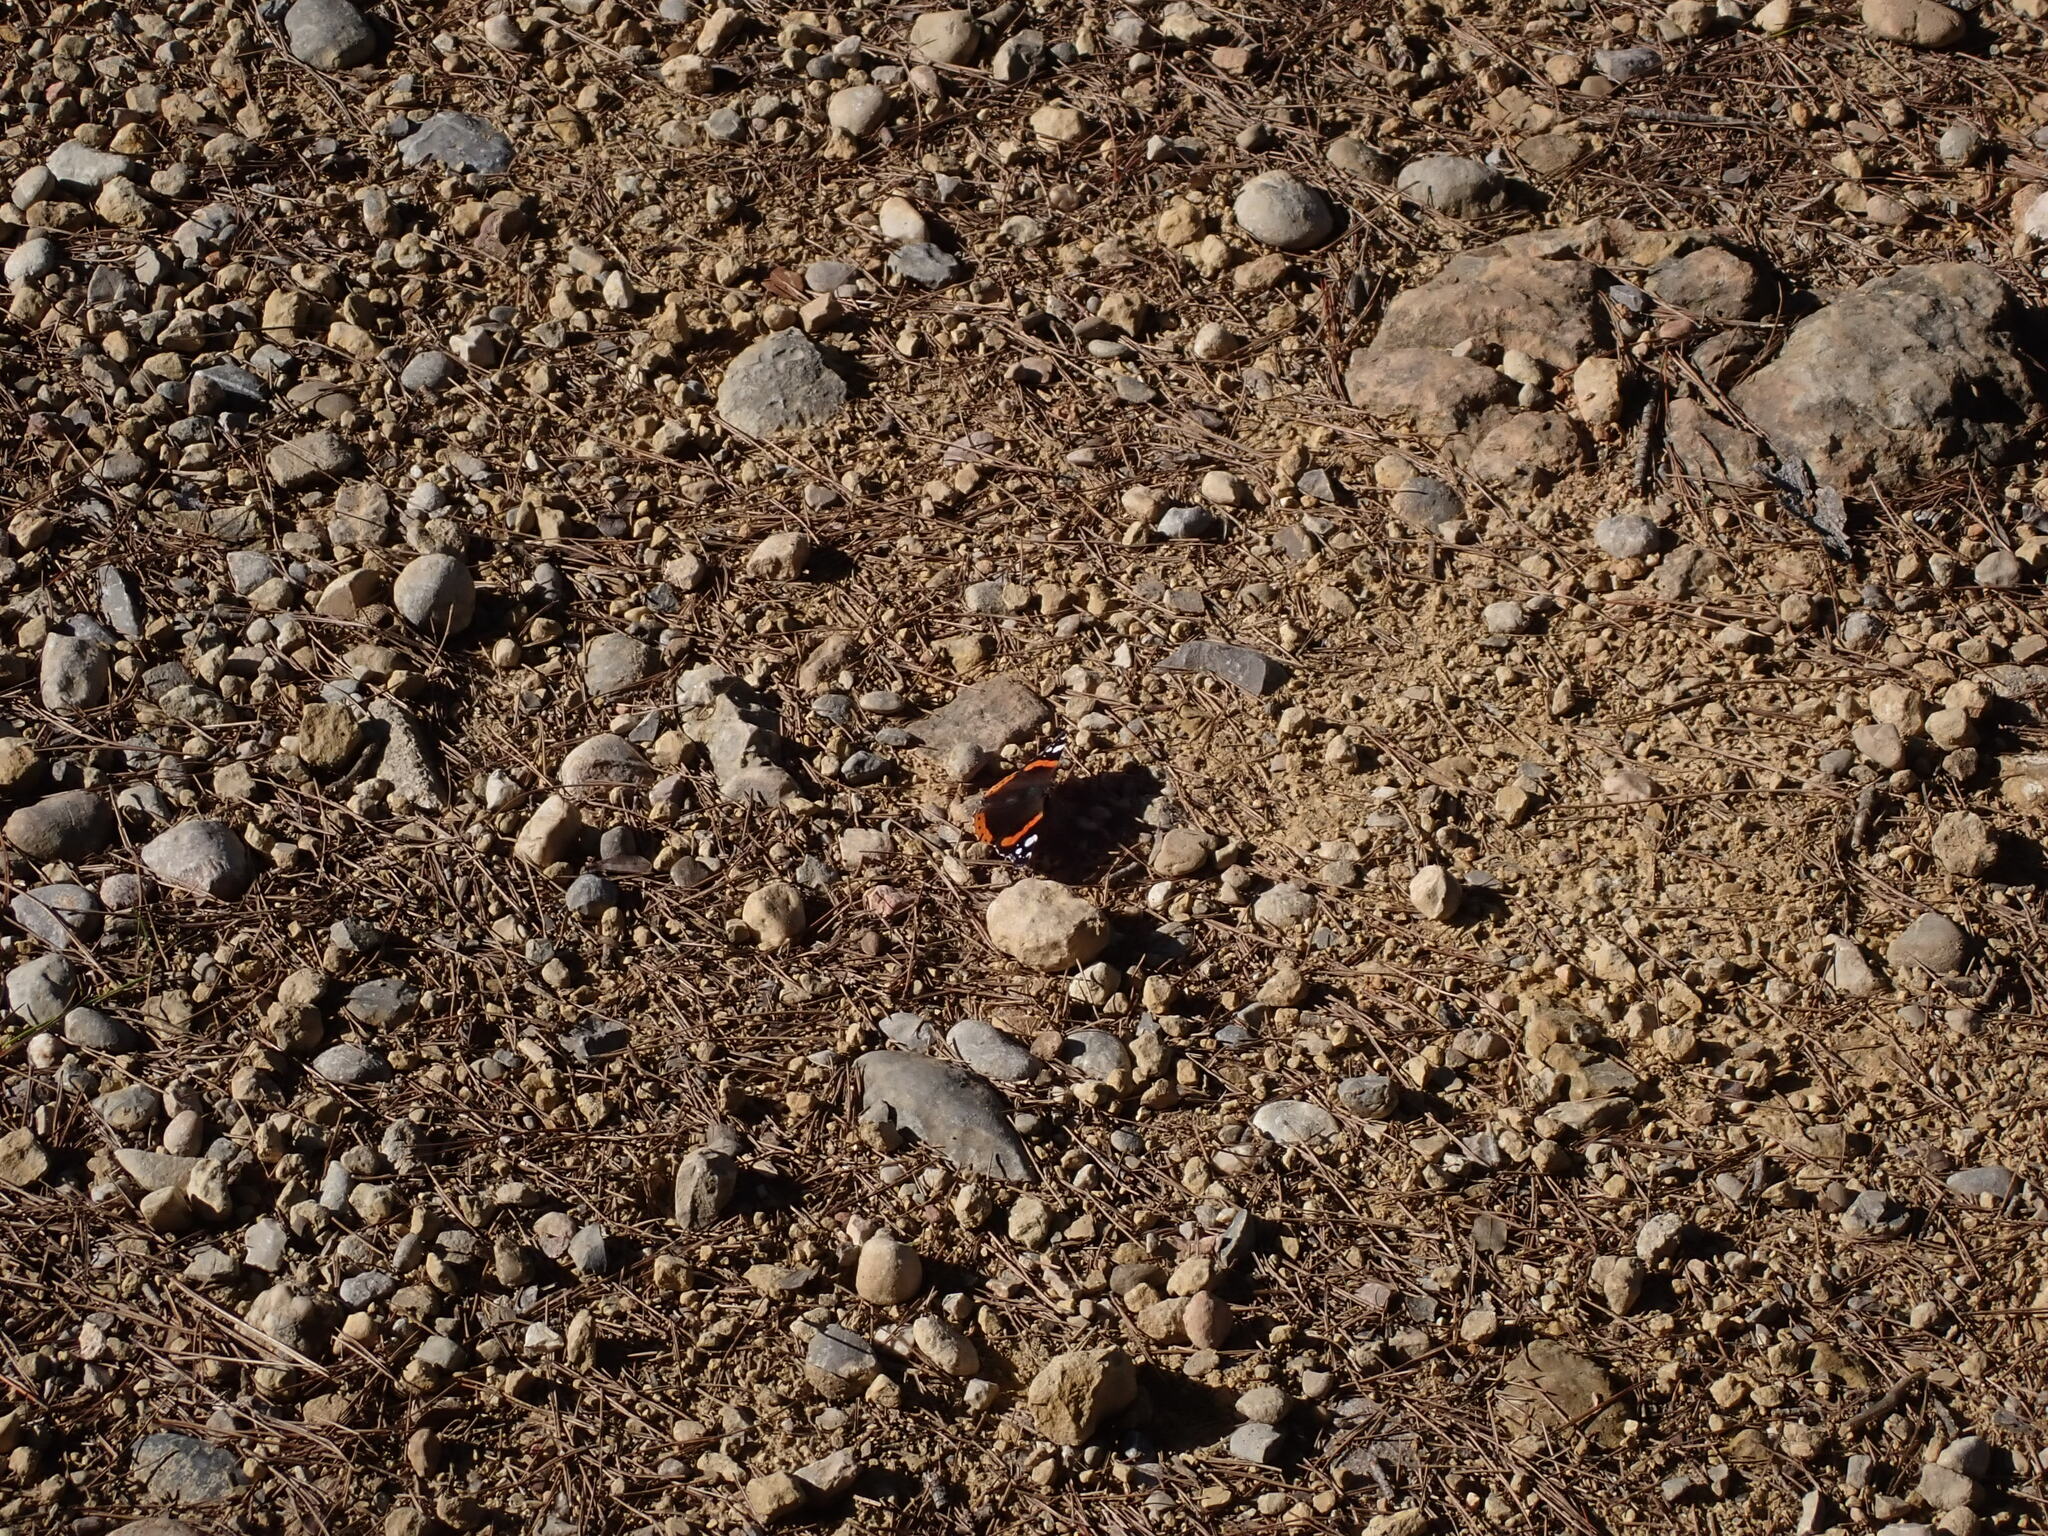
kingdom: Animalia
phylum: Arthropoda
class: Insecta
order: Lepidoptera
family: Nymphalidae
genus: Vanessa
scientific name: Vanessa atalanta
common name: Red admiral
